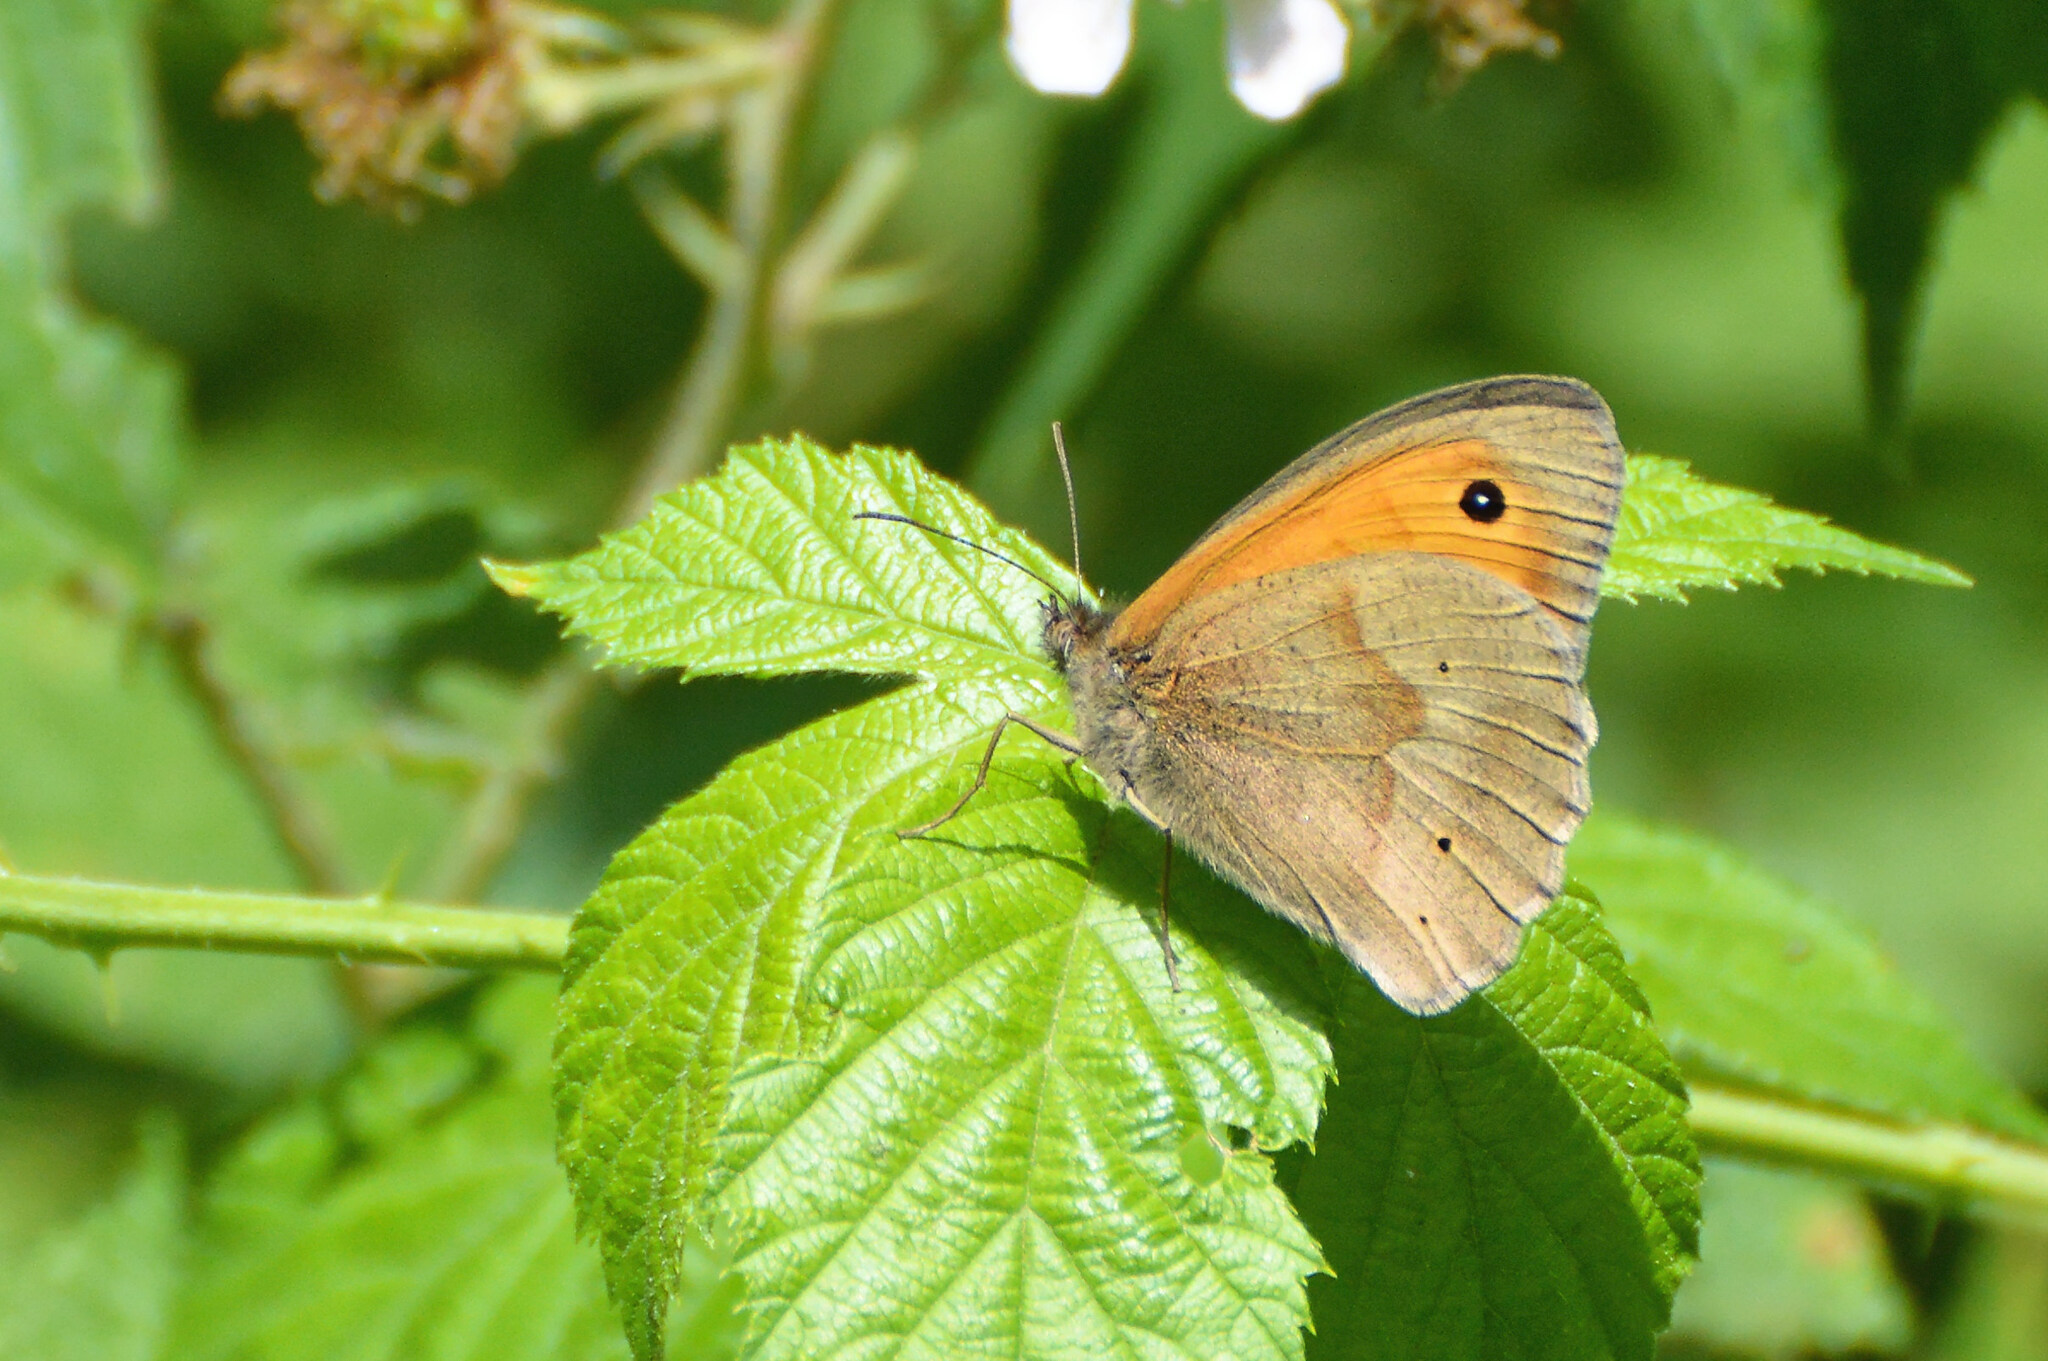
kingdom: Animalia
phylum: Arthropoda
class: Insecta
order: Lepidoptera
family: Nymphalidae
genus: Maniola
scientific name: Maniola jurtina
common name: Meadow brown
